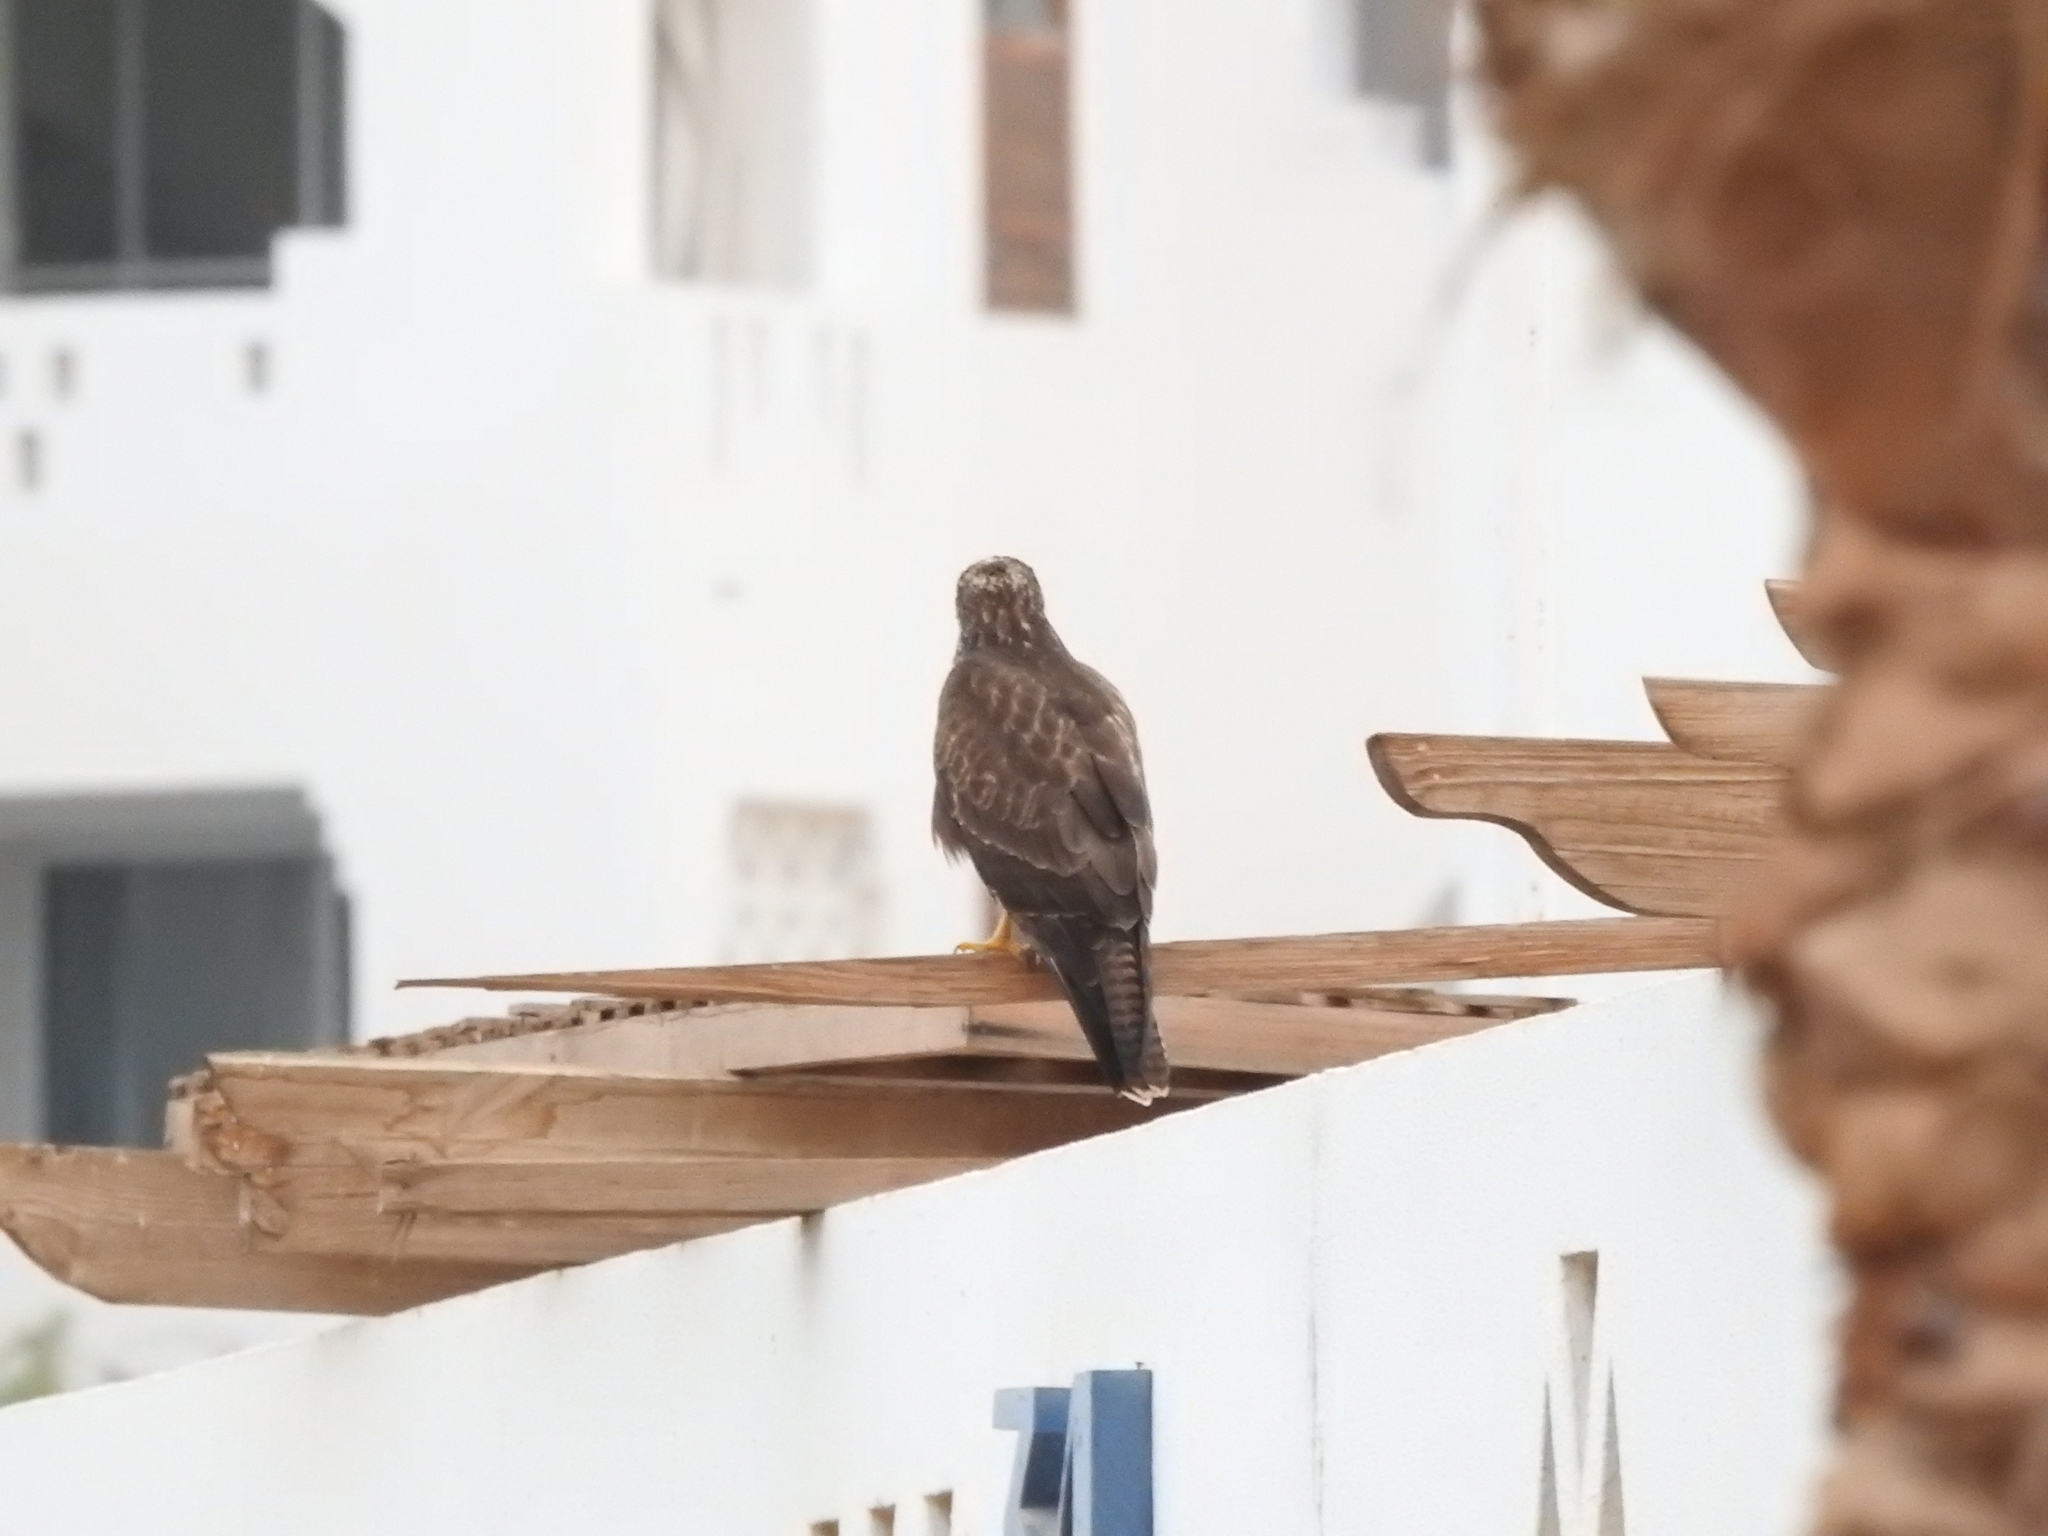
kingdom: Animalia
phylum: Chordata
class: Aves
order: Accipitriformes
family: Accipitridae
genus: Buteo
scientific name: Buteo buteo
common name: Common buzzard
